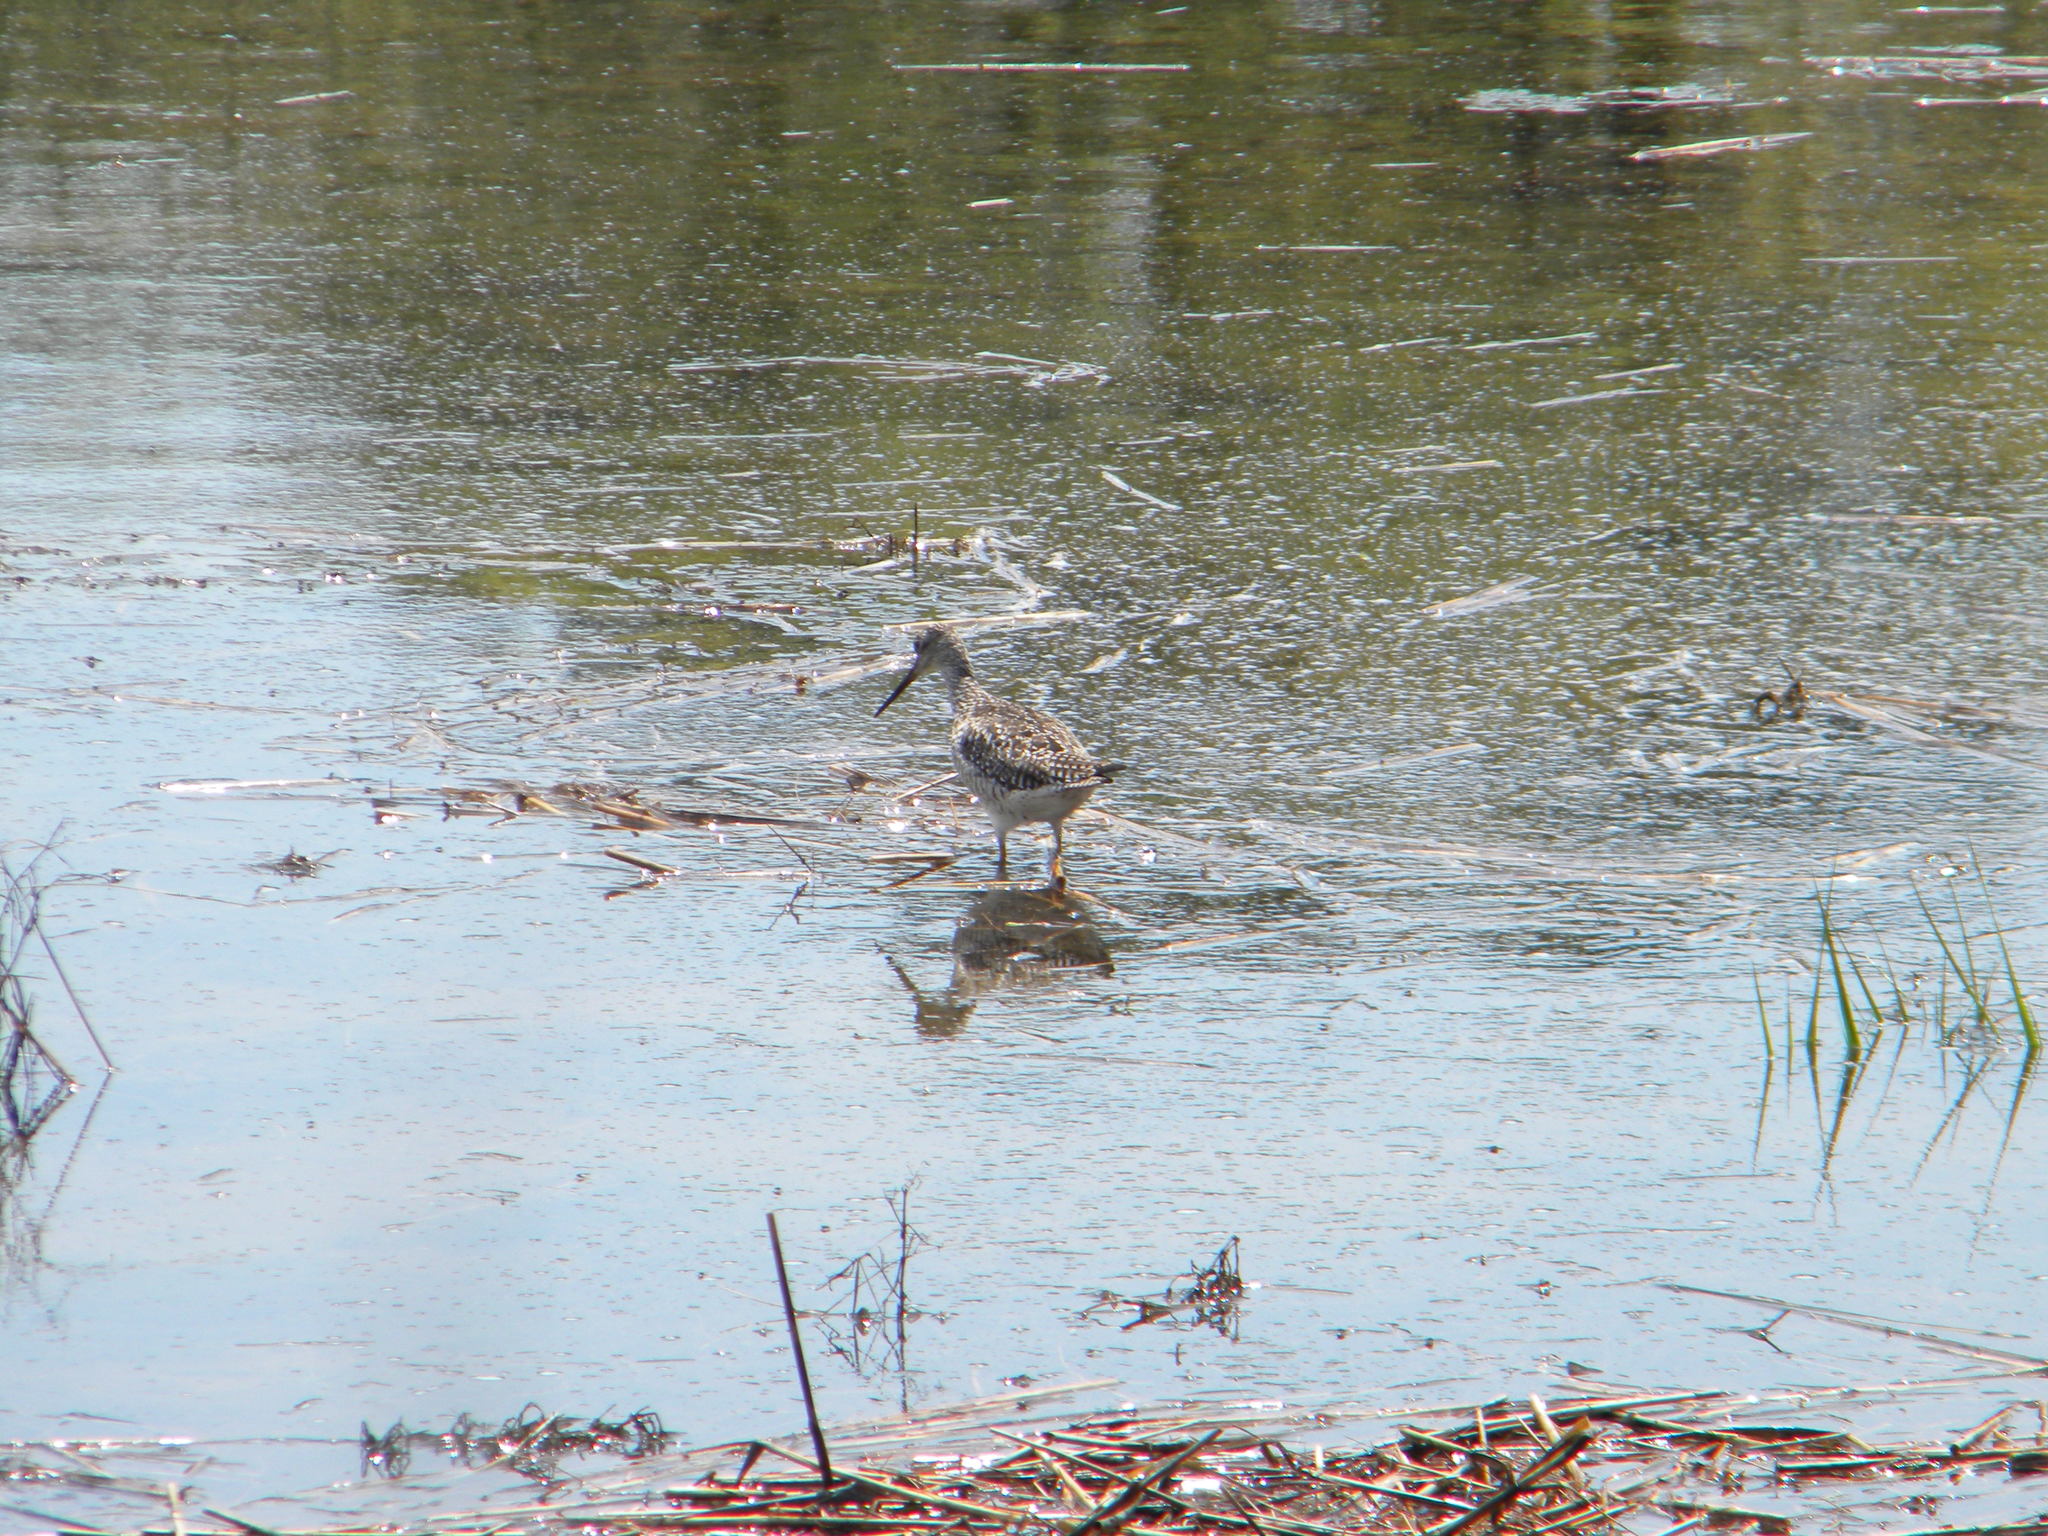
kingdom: Animalia
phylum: Chordata
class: Aves
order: Charadriiformes
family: Scolopacidae
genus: Tringa
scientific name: Tringa melanoleuca
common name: Greater yellowlegs
